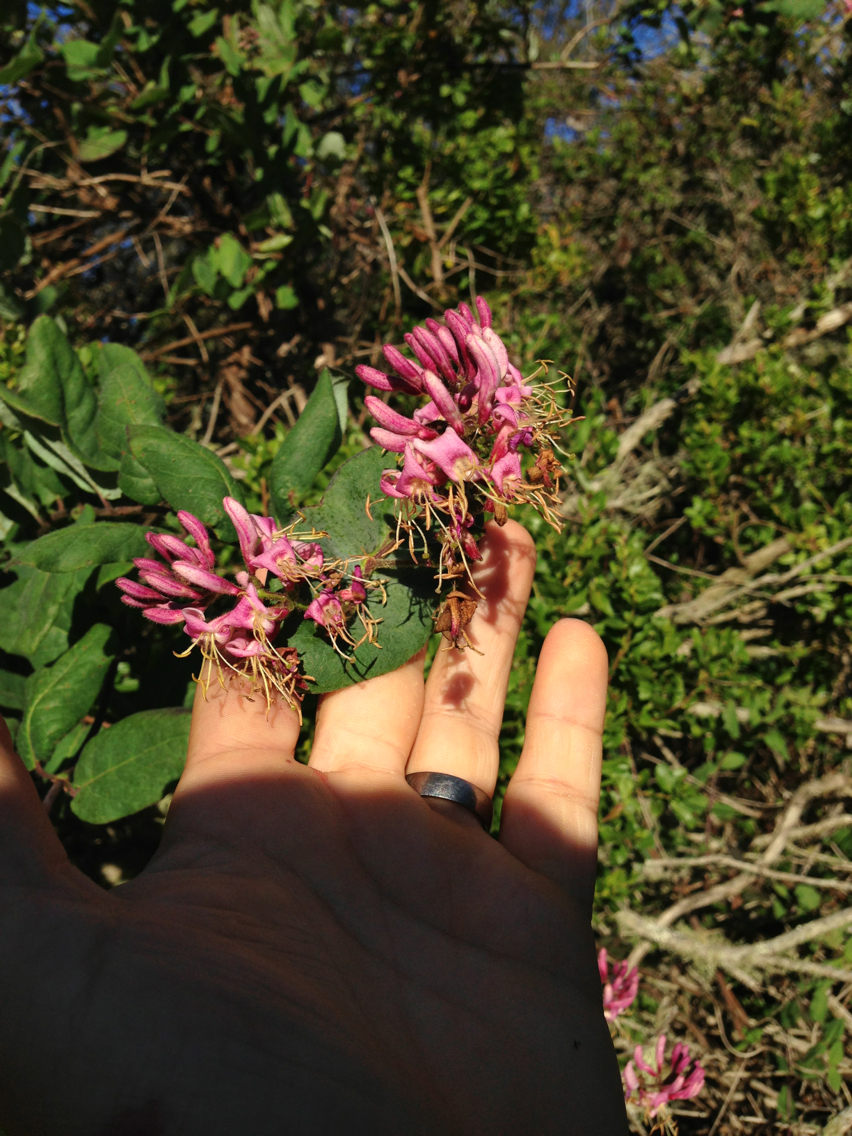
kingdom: Plantae
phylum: Tracheophyta
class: Magnoliopsida
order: Dipsacales
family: Caprifoliaceae
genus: Lonicera
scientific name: Lonicera hispidula
